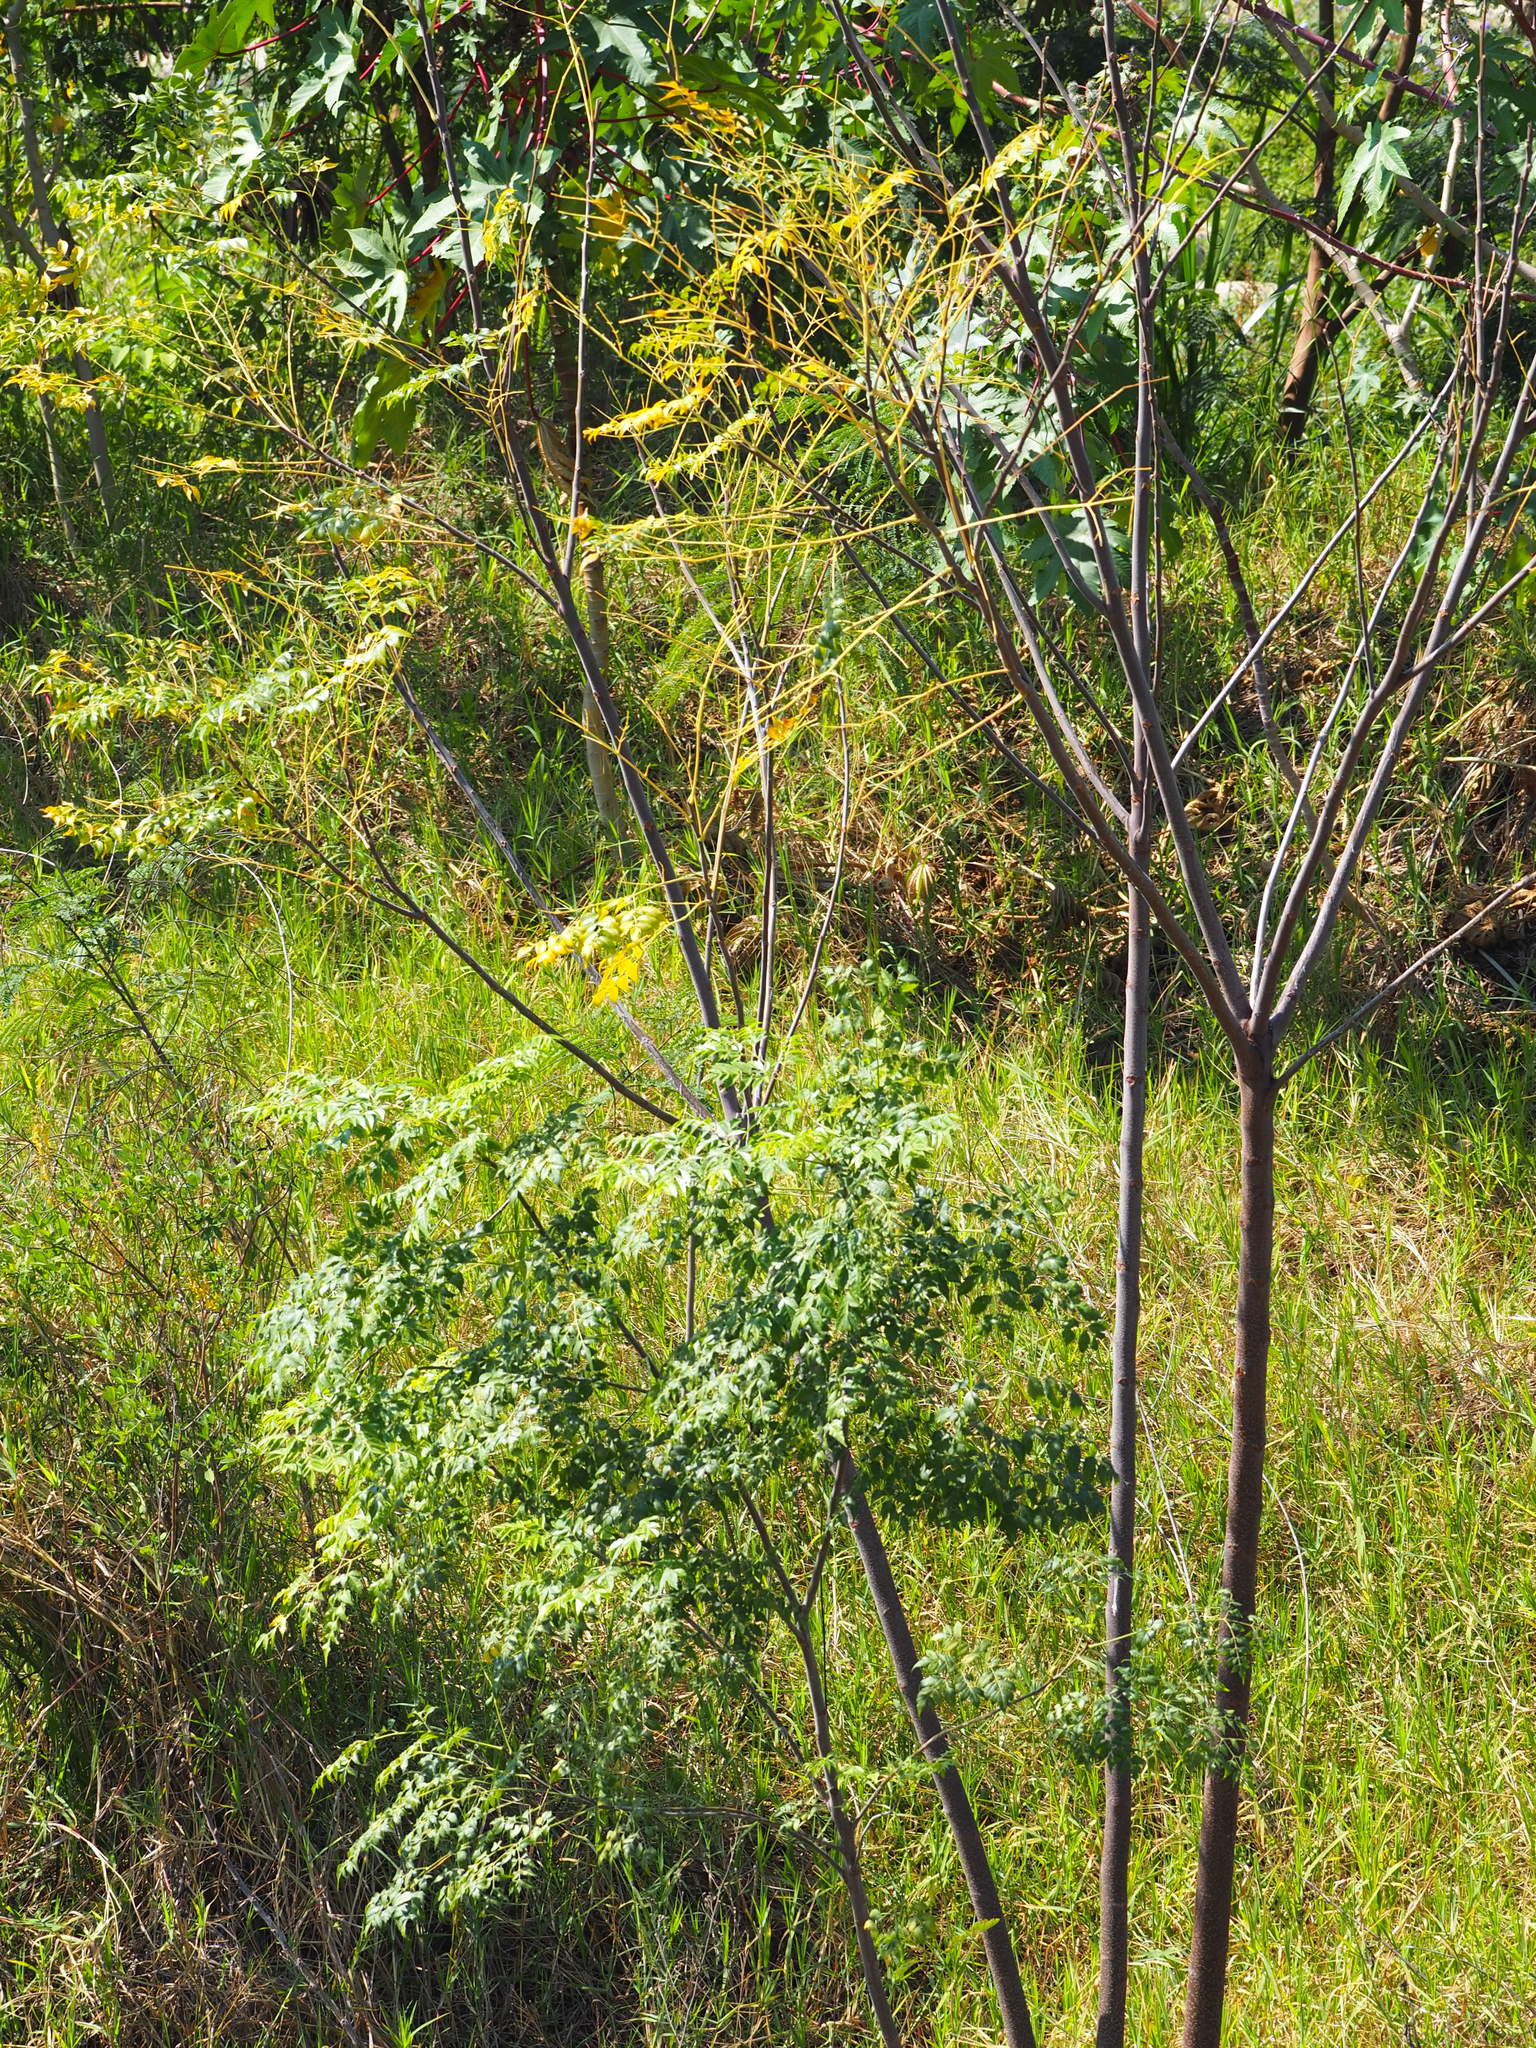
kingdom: Plantae
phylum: Tracheophyta
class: Magnoliopsida
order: Sapindales
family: Meliaceae
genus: Melia
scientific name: Melia azedarach
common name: Chinaberrytree
